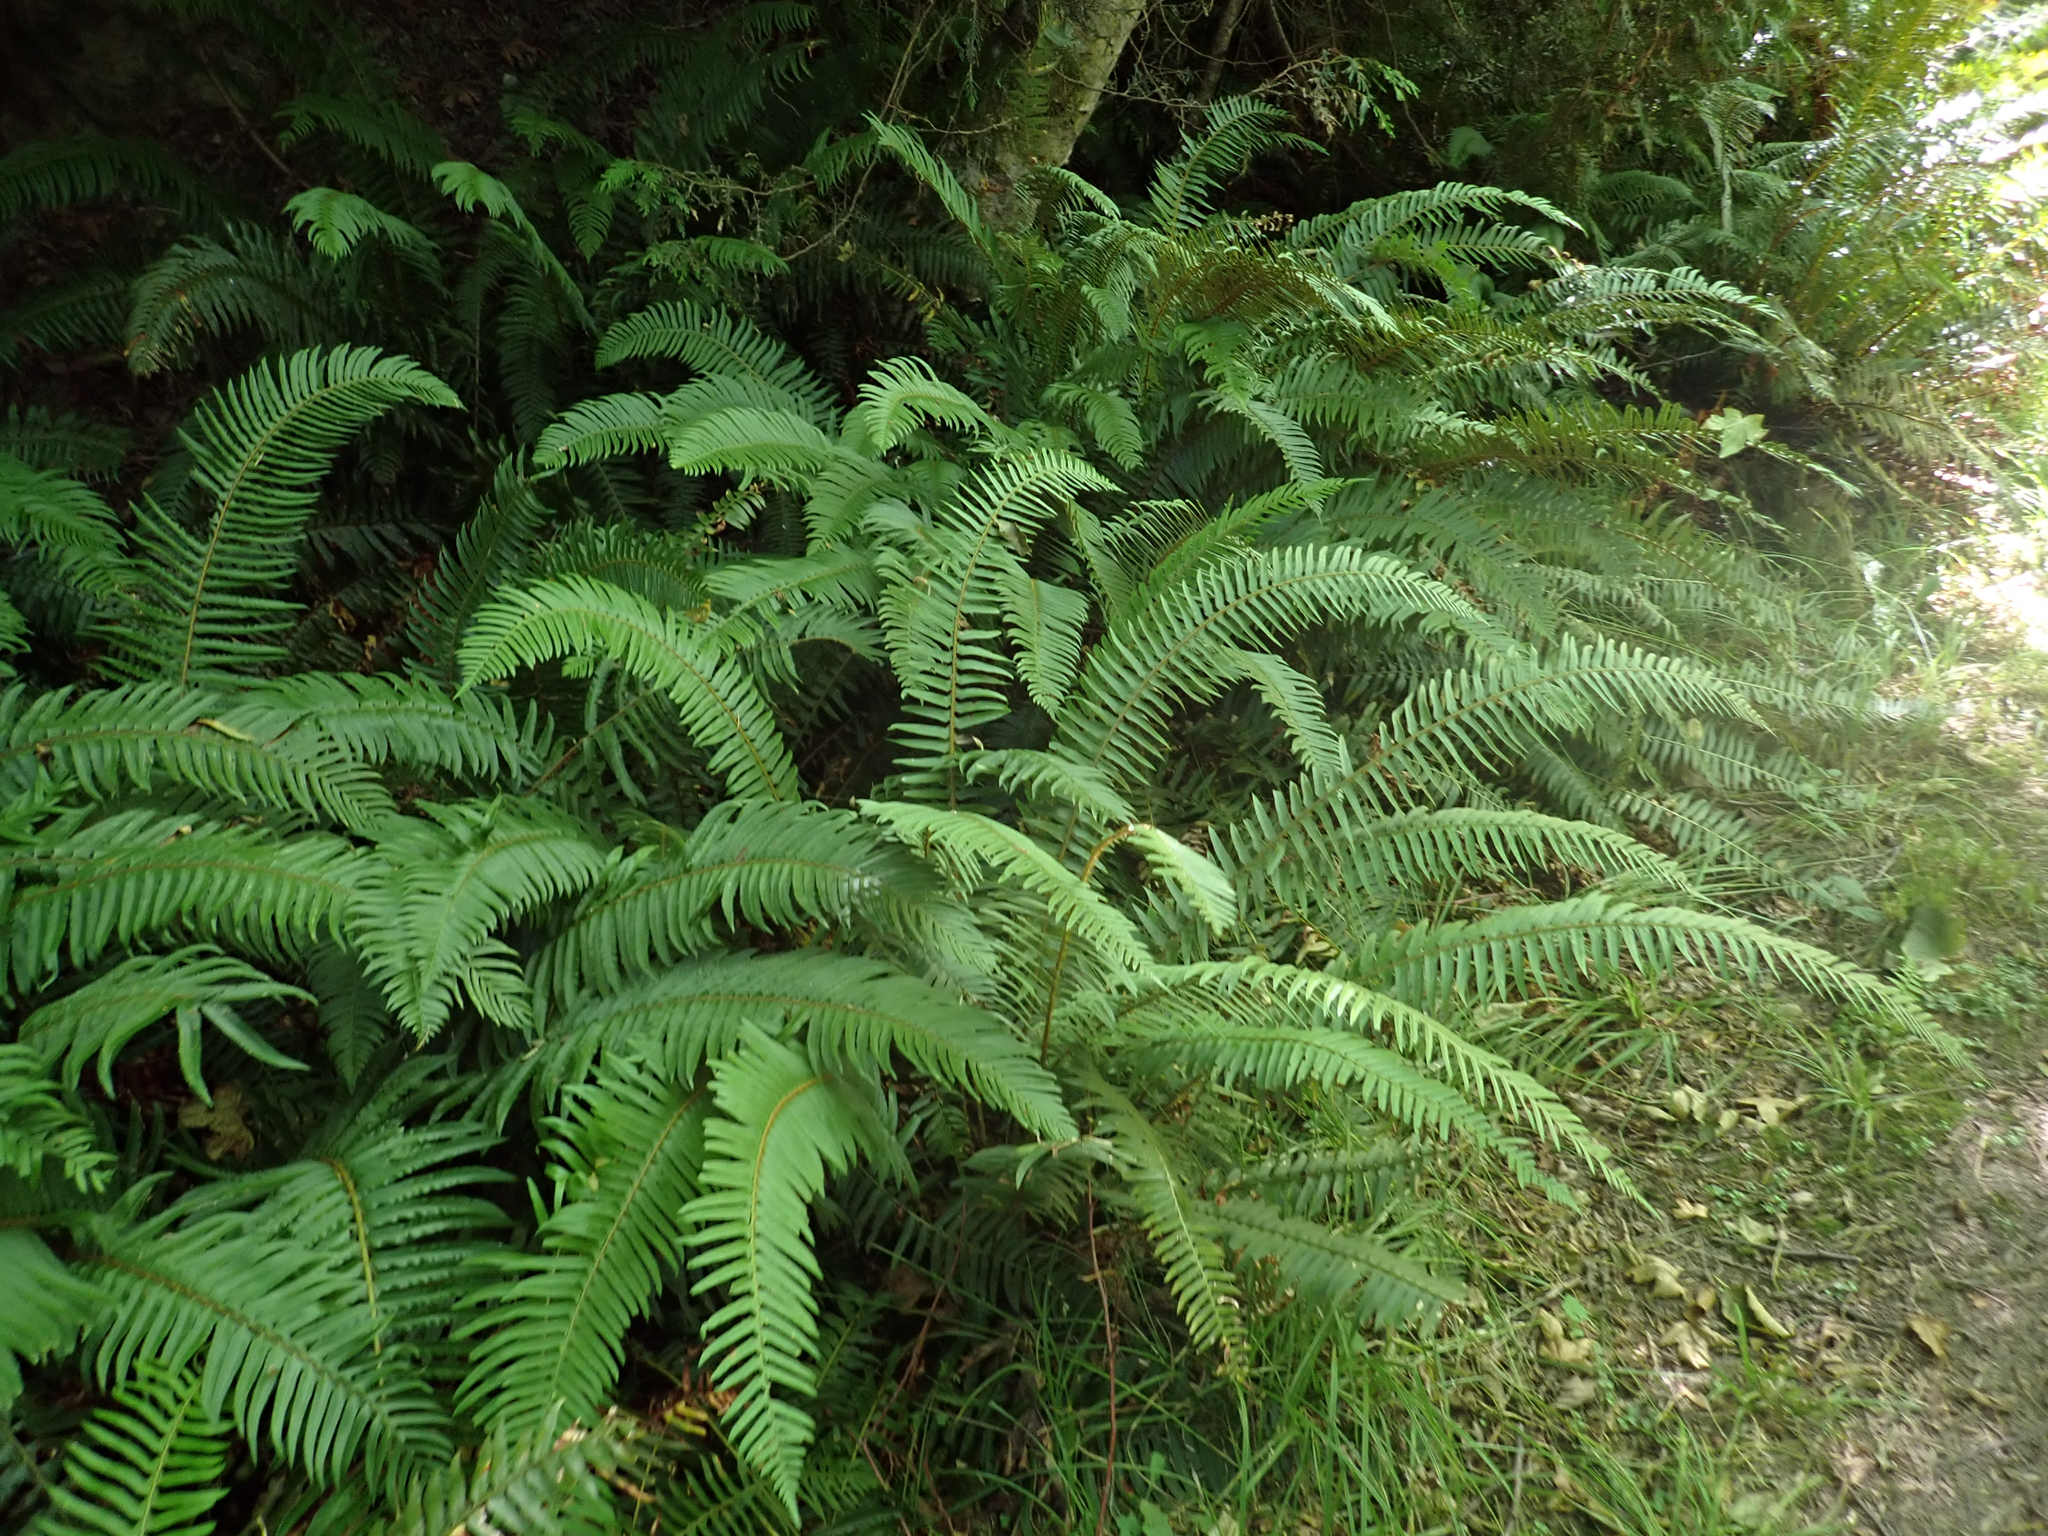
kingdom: Plantae
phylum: Tracheophyta
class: Polypodiopsida
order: Polypodiales
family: Dryopteridaceae
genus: Polystichum
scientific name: Polystichum munitum
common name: Western sword-fern
